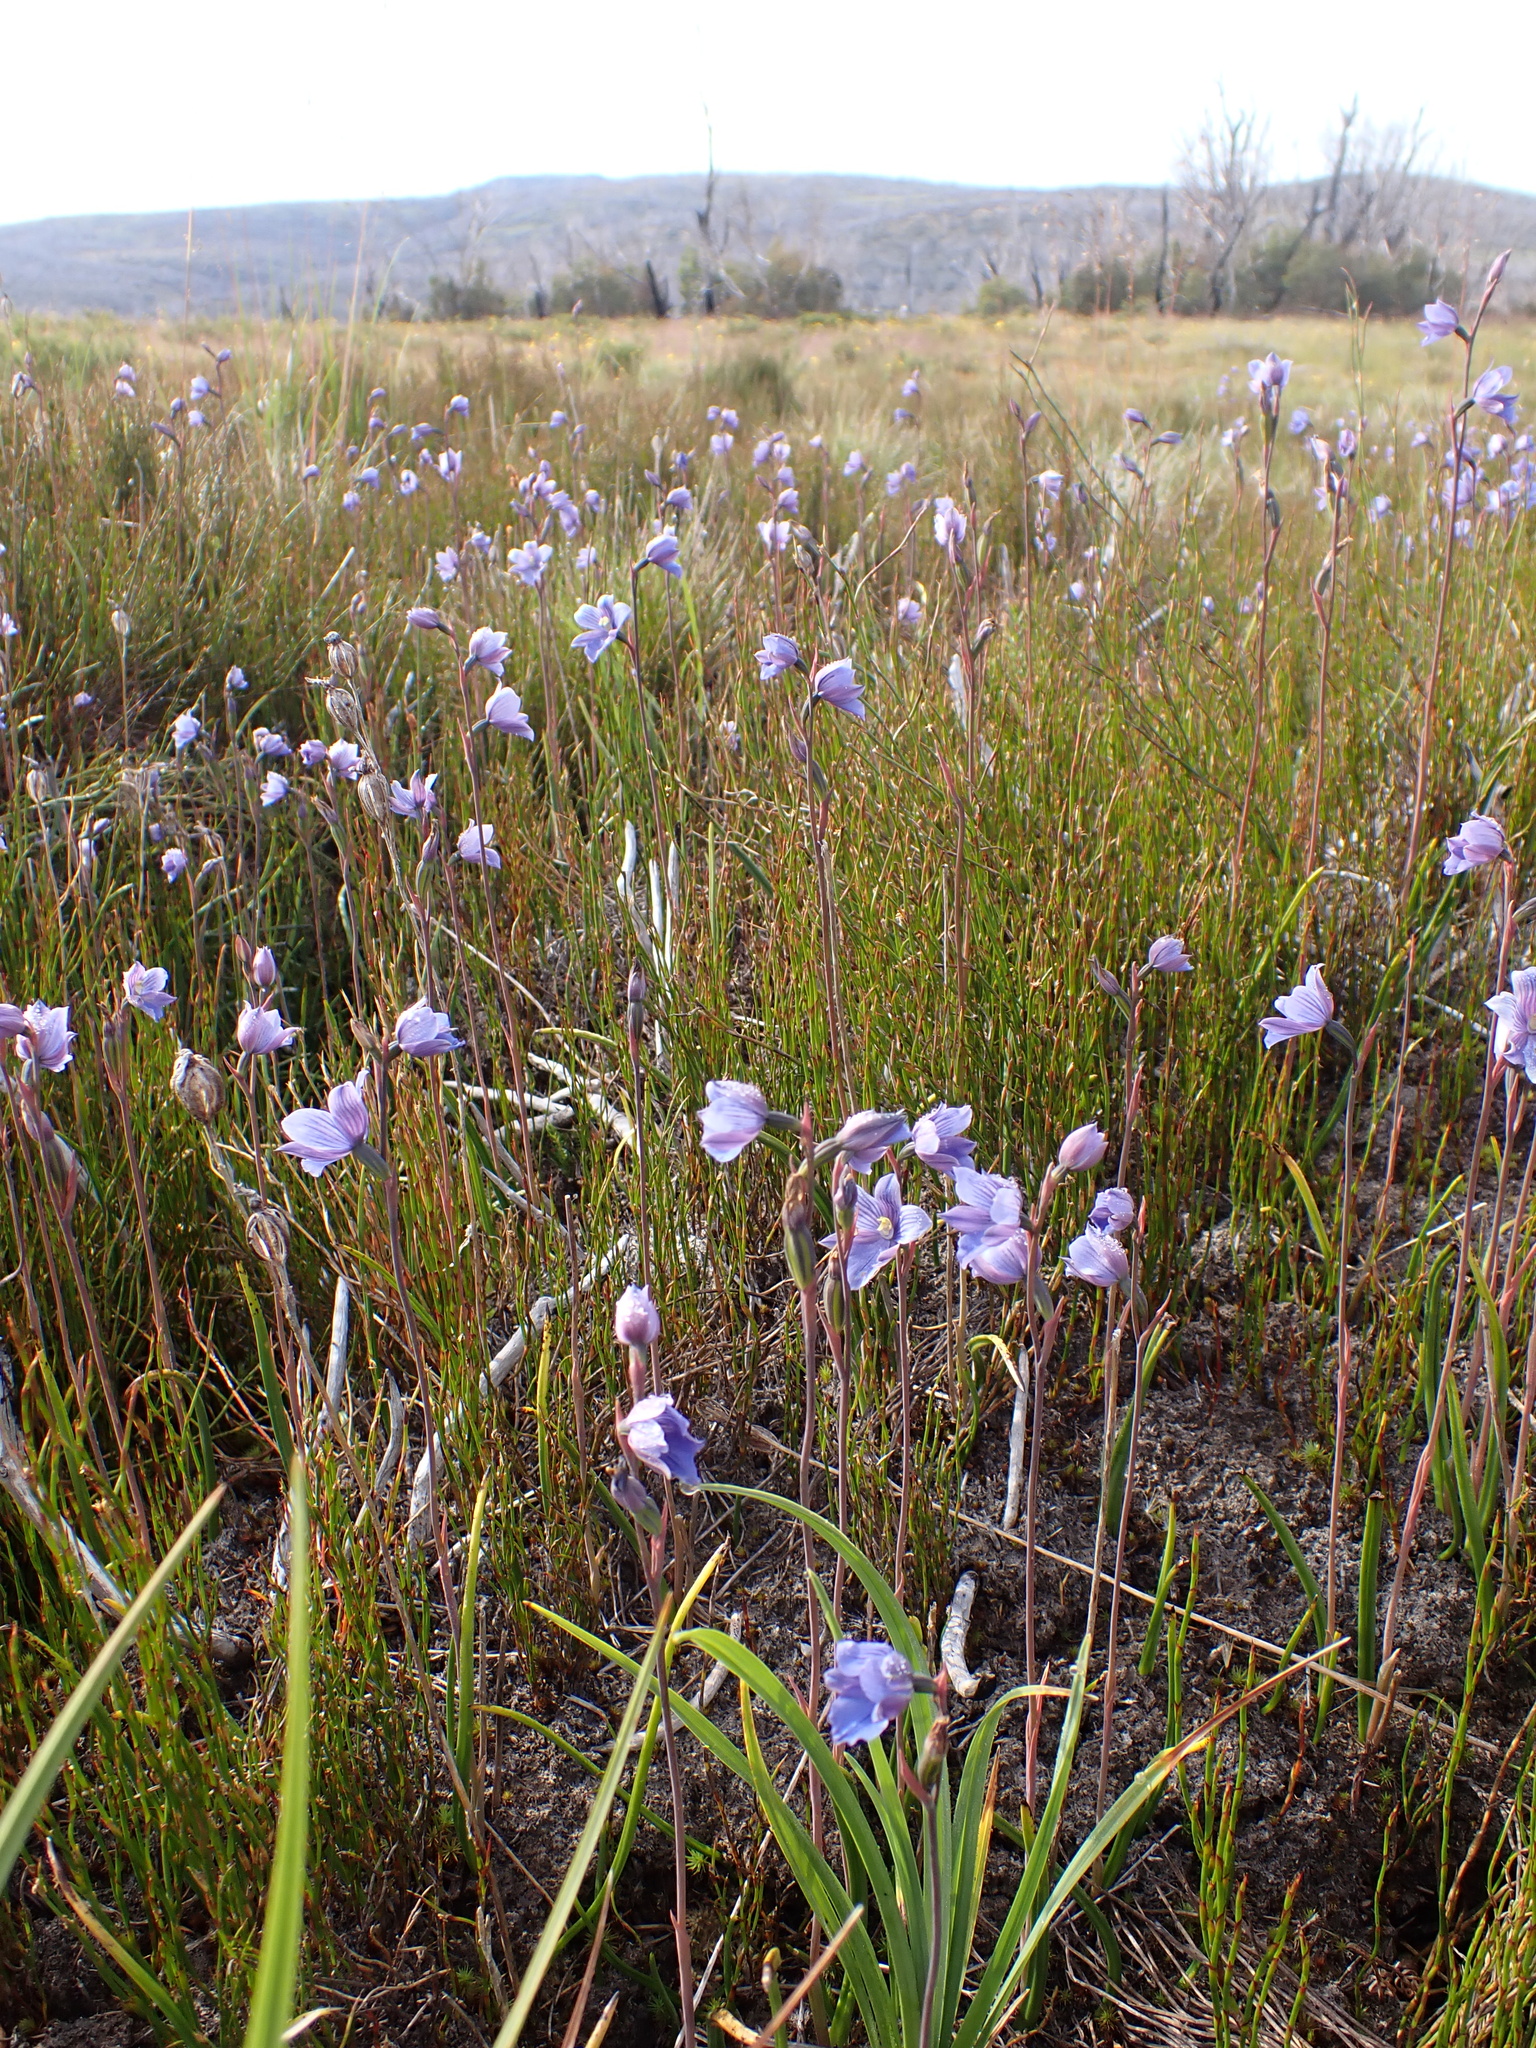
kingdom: Plantae
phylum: Tracheophyta
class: Liliopsida
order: Asparagales
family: Orchidaceae
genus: Thelymitra
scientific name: Thelymitra cyanea
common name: Blue sun-orchid
